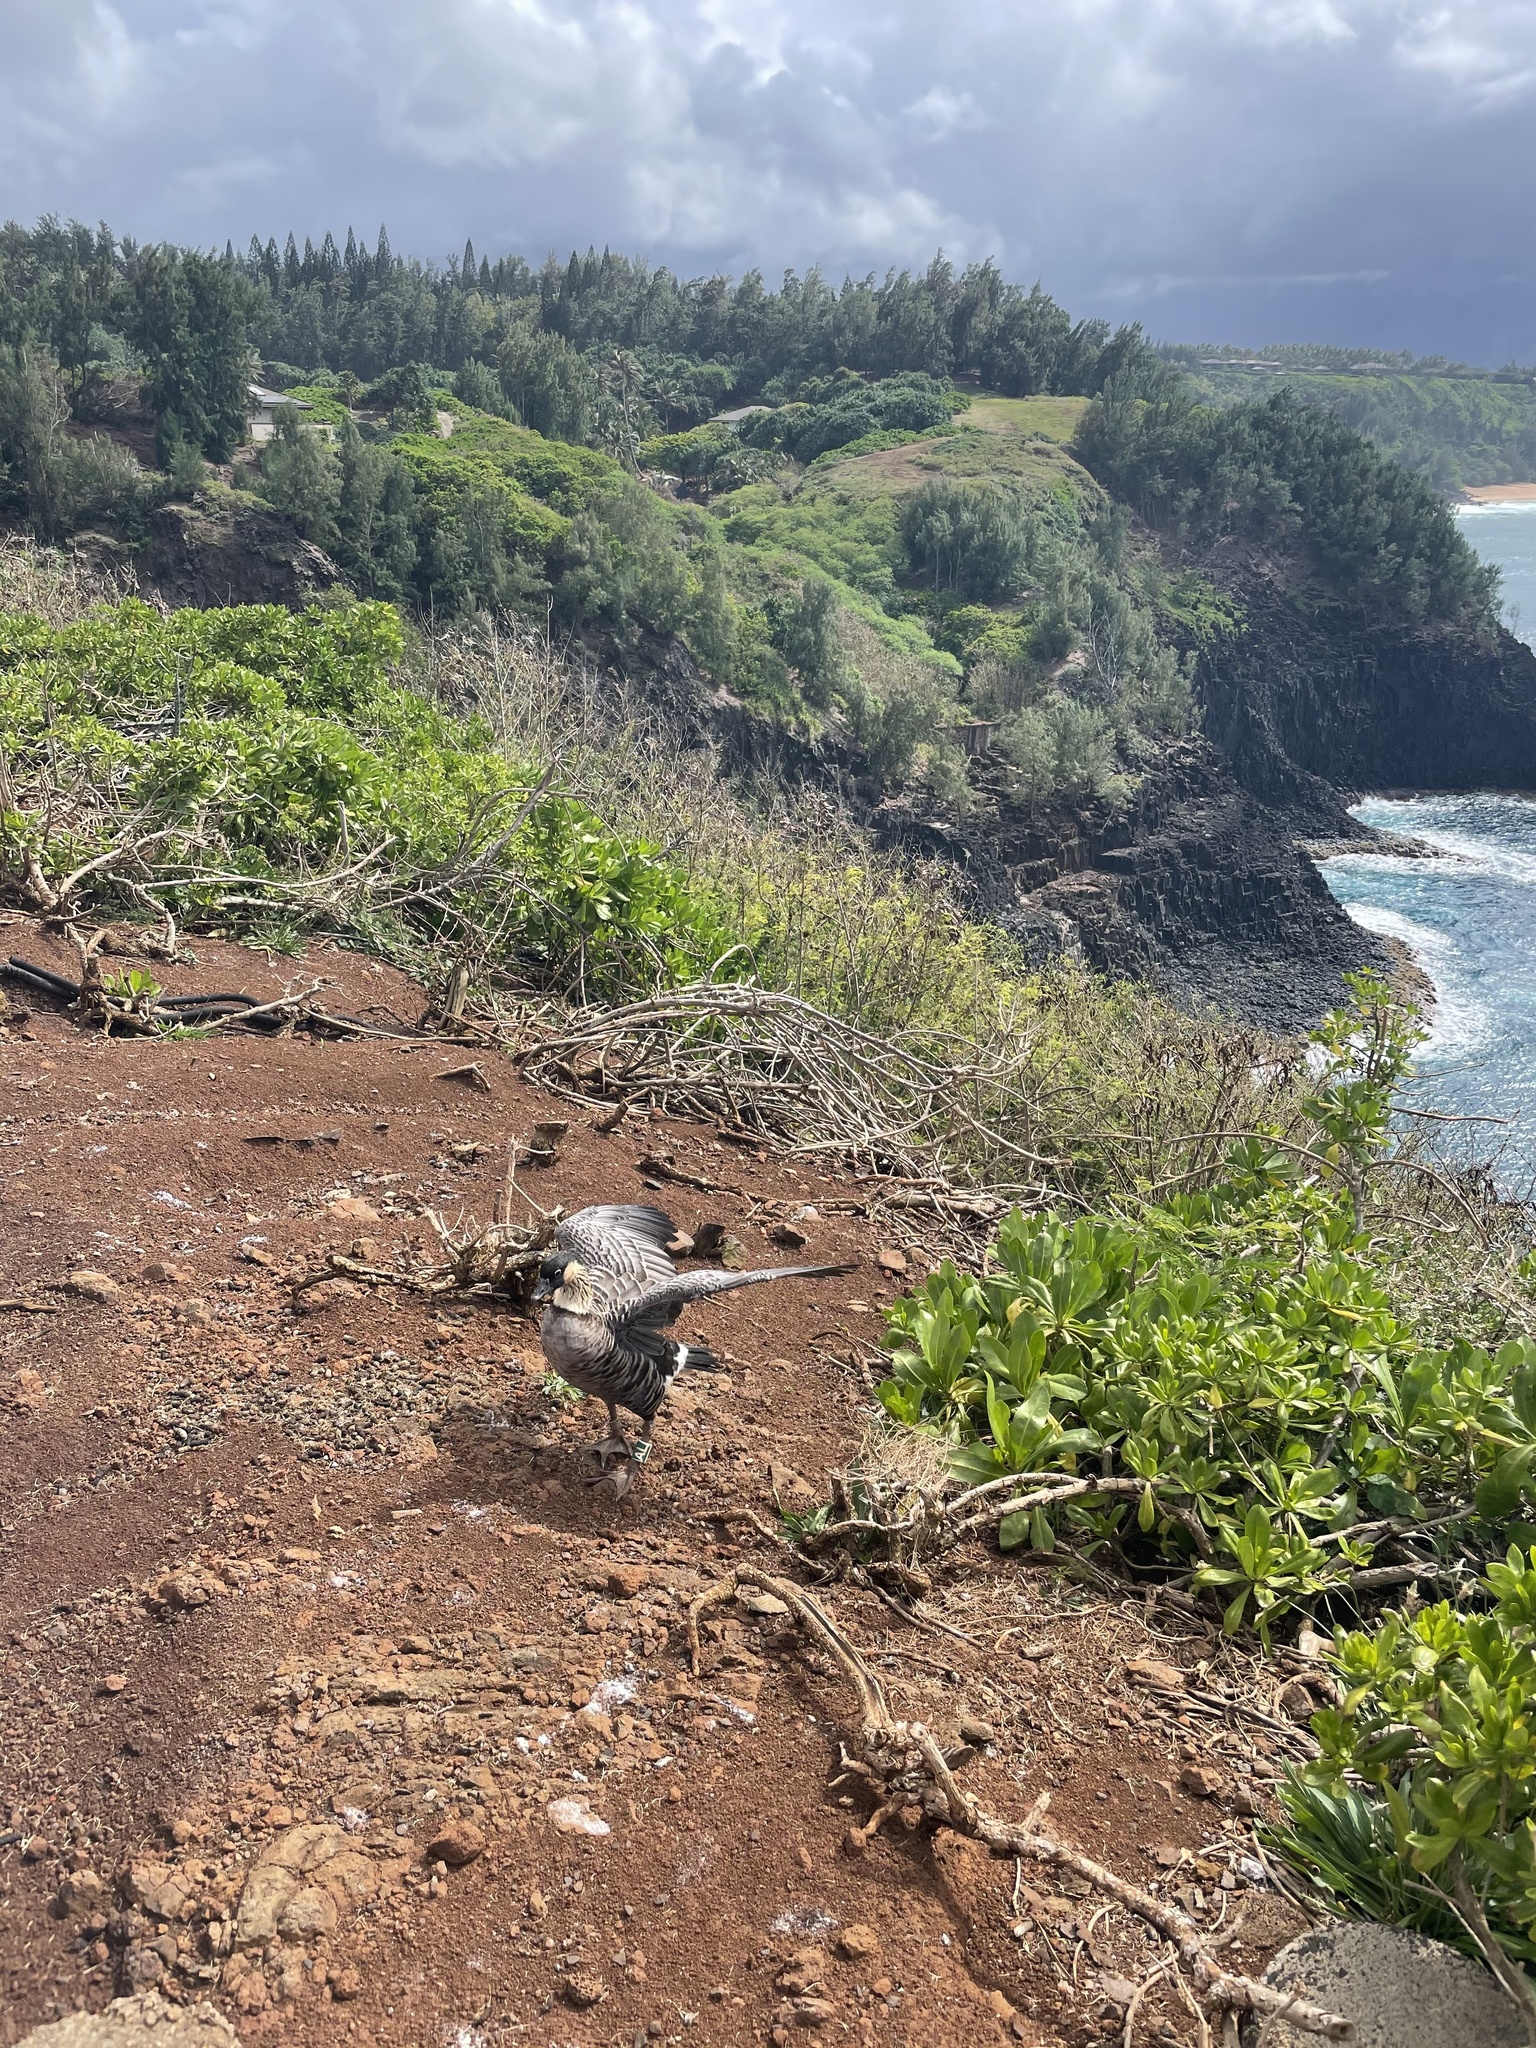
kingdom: Animalia
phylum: Chordata
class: Aves
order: Anseriformes
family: Anatidae
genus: Branta
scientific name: Branta sandvicensis
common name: Nene
